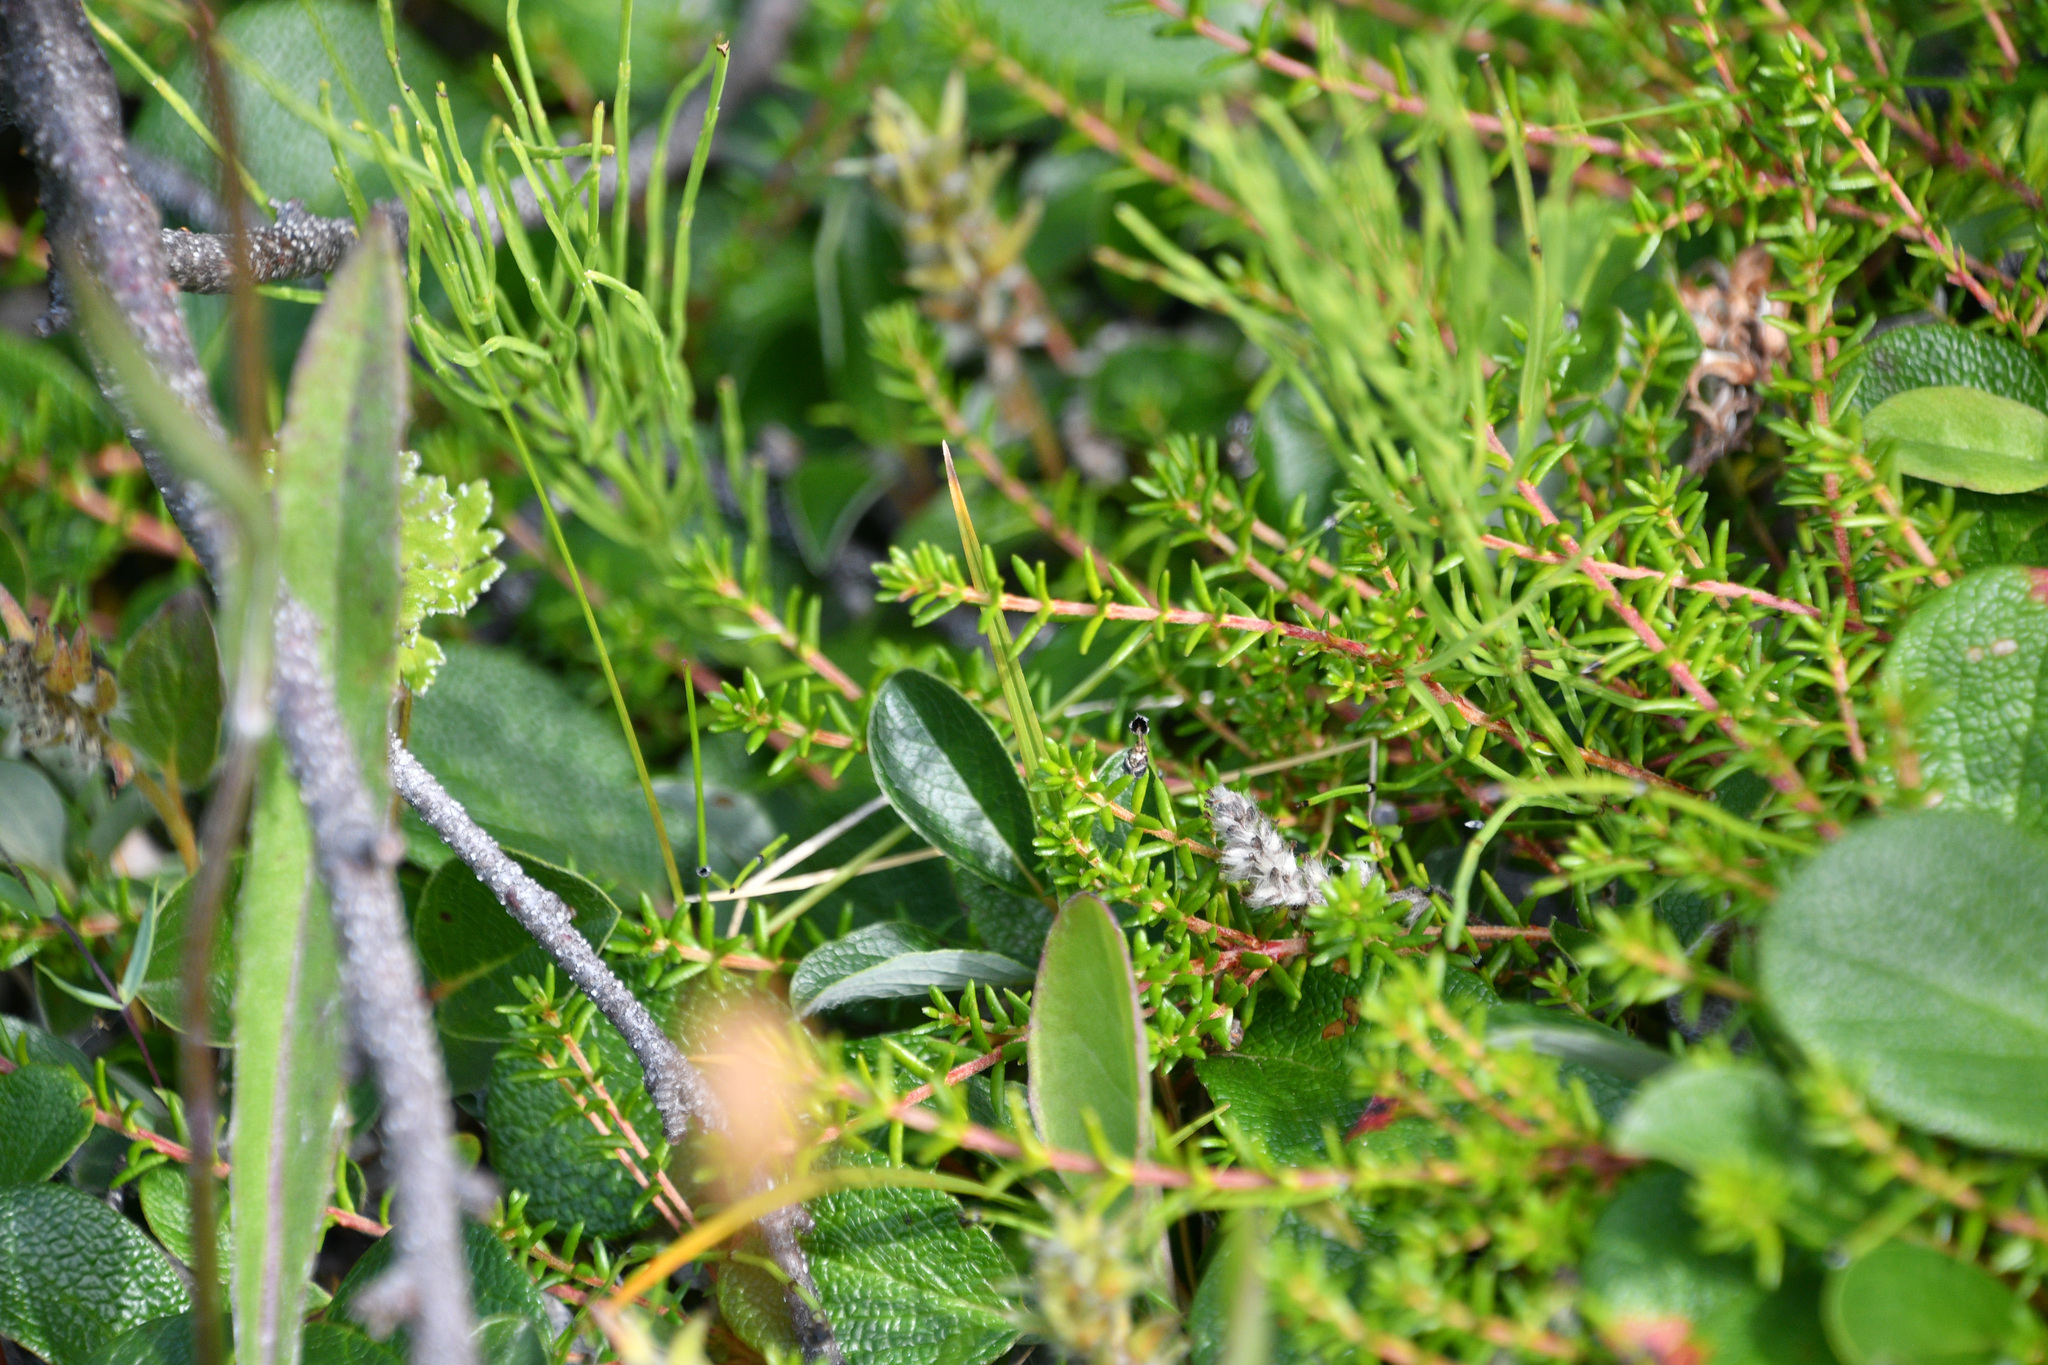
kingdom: Plantae
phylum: Tracheophyta
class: Magnoliopsida
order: Ericales
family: Ericaceae
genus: Empetrum
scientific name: Empetrum nigrum
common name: Black crowberry
